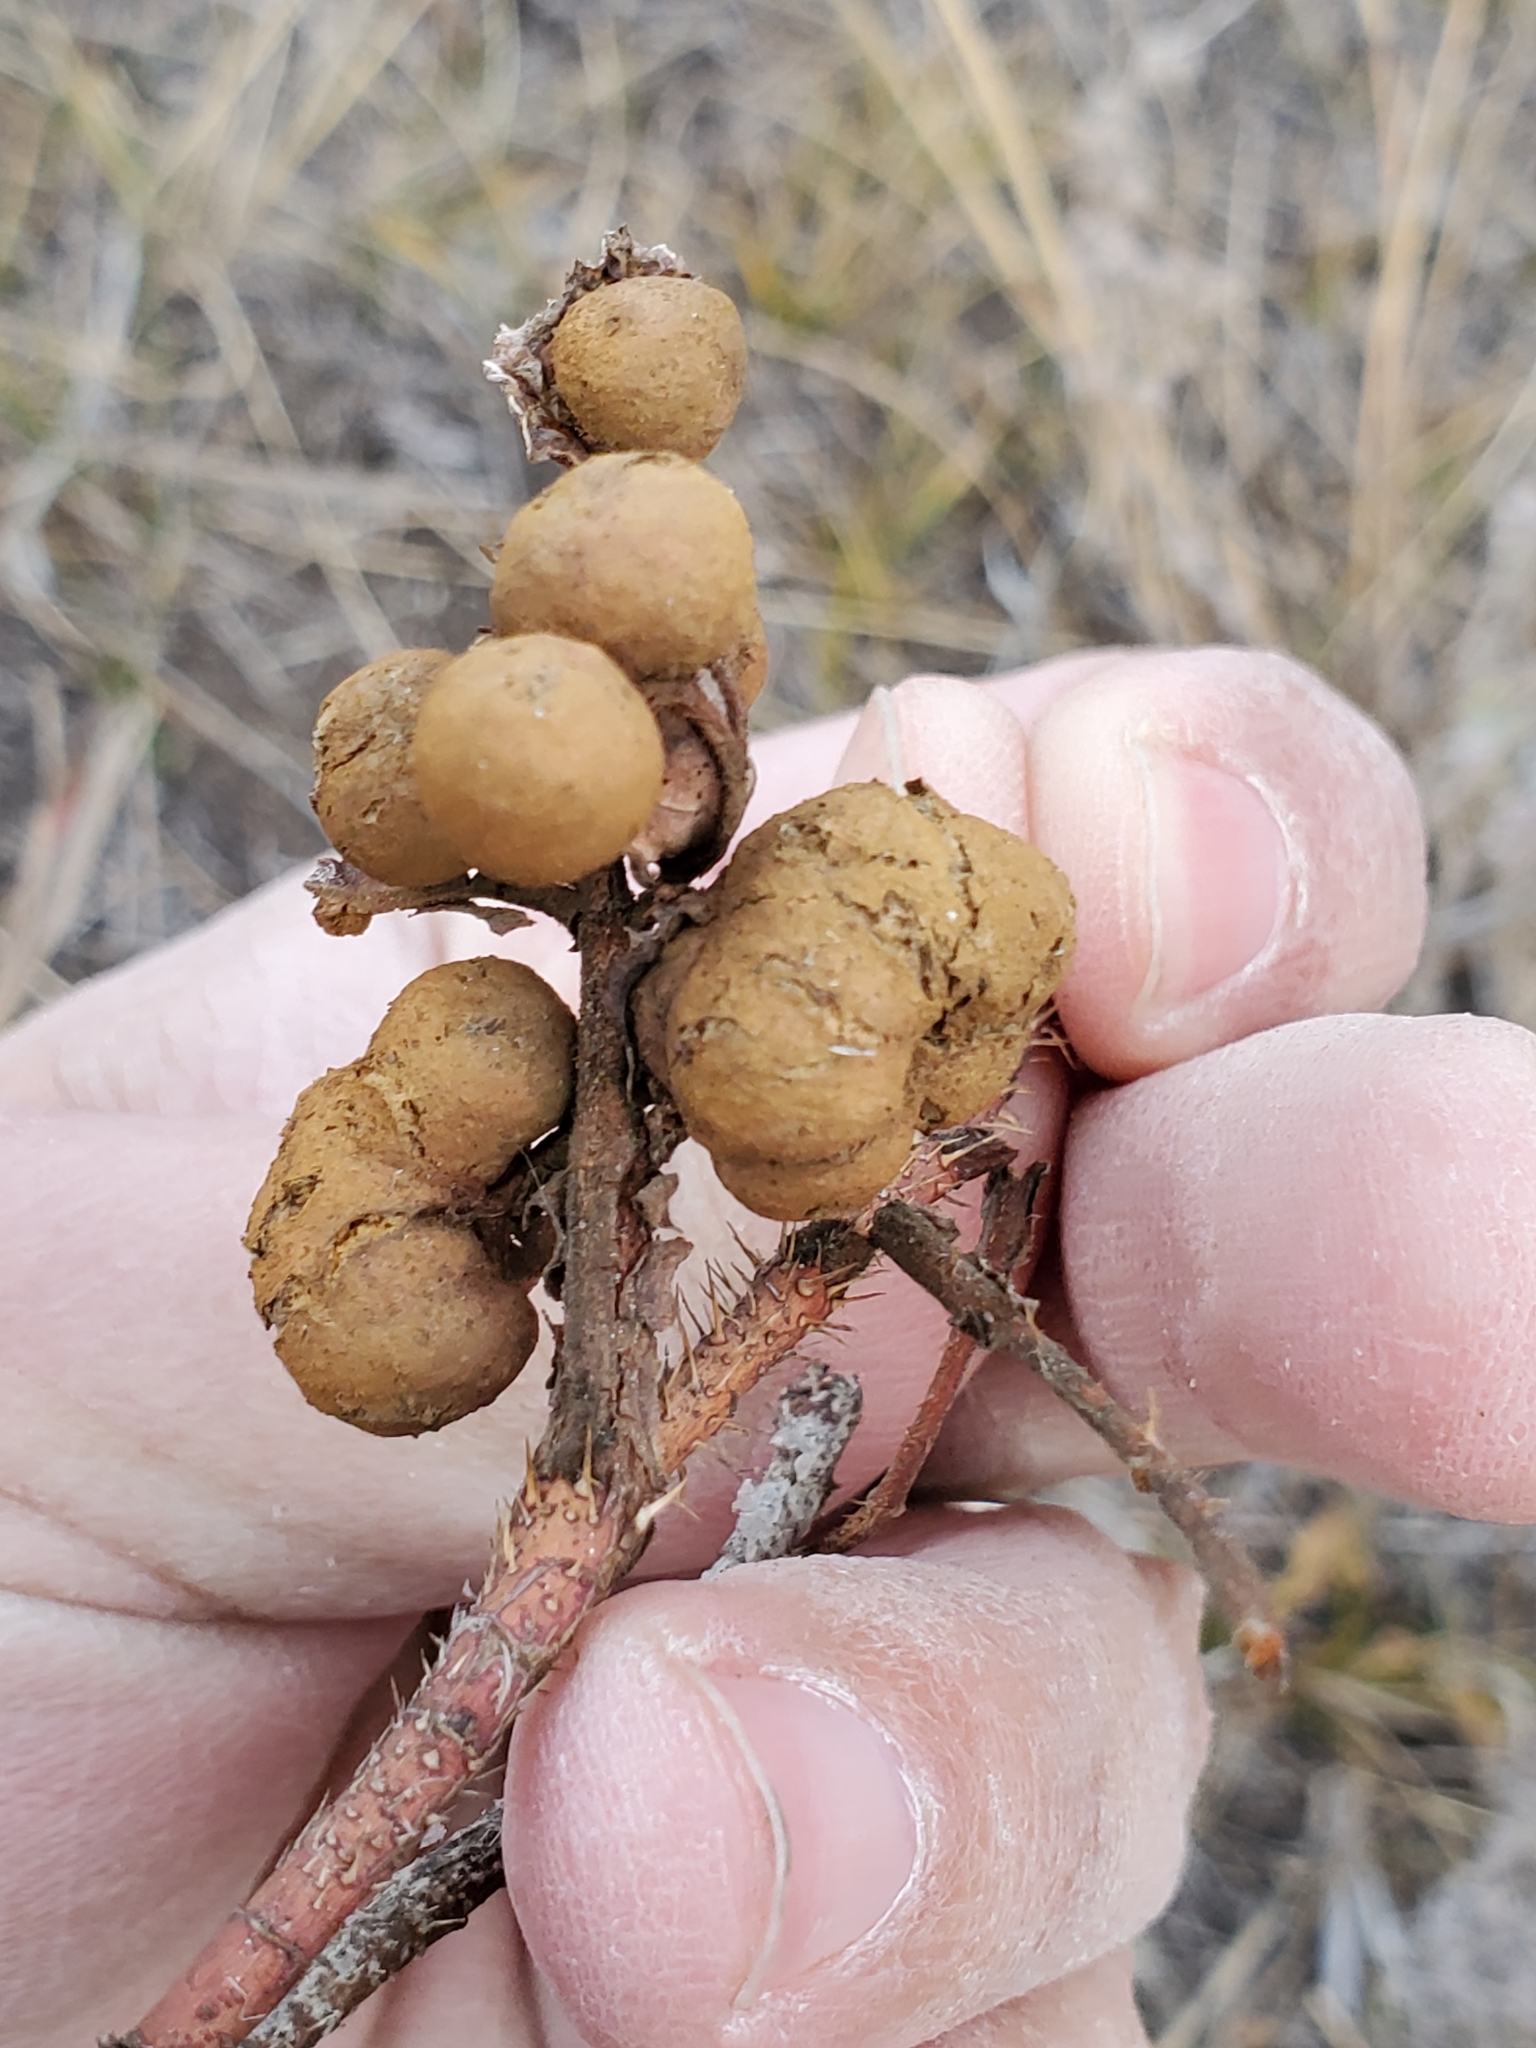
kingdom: Animalia
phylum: Arthropoda
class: Insecta
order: Hymenoptera
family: Cynipidae
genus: Diplolepis
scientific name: Diplolepis ignota
